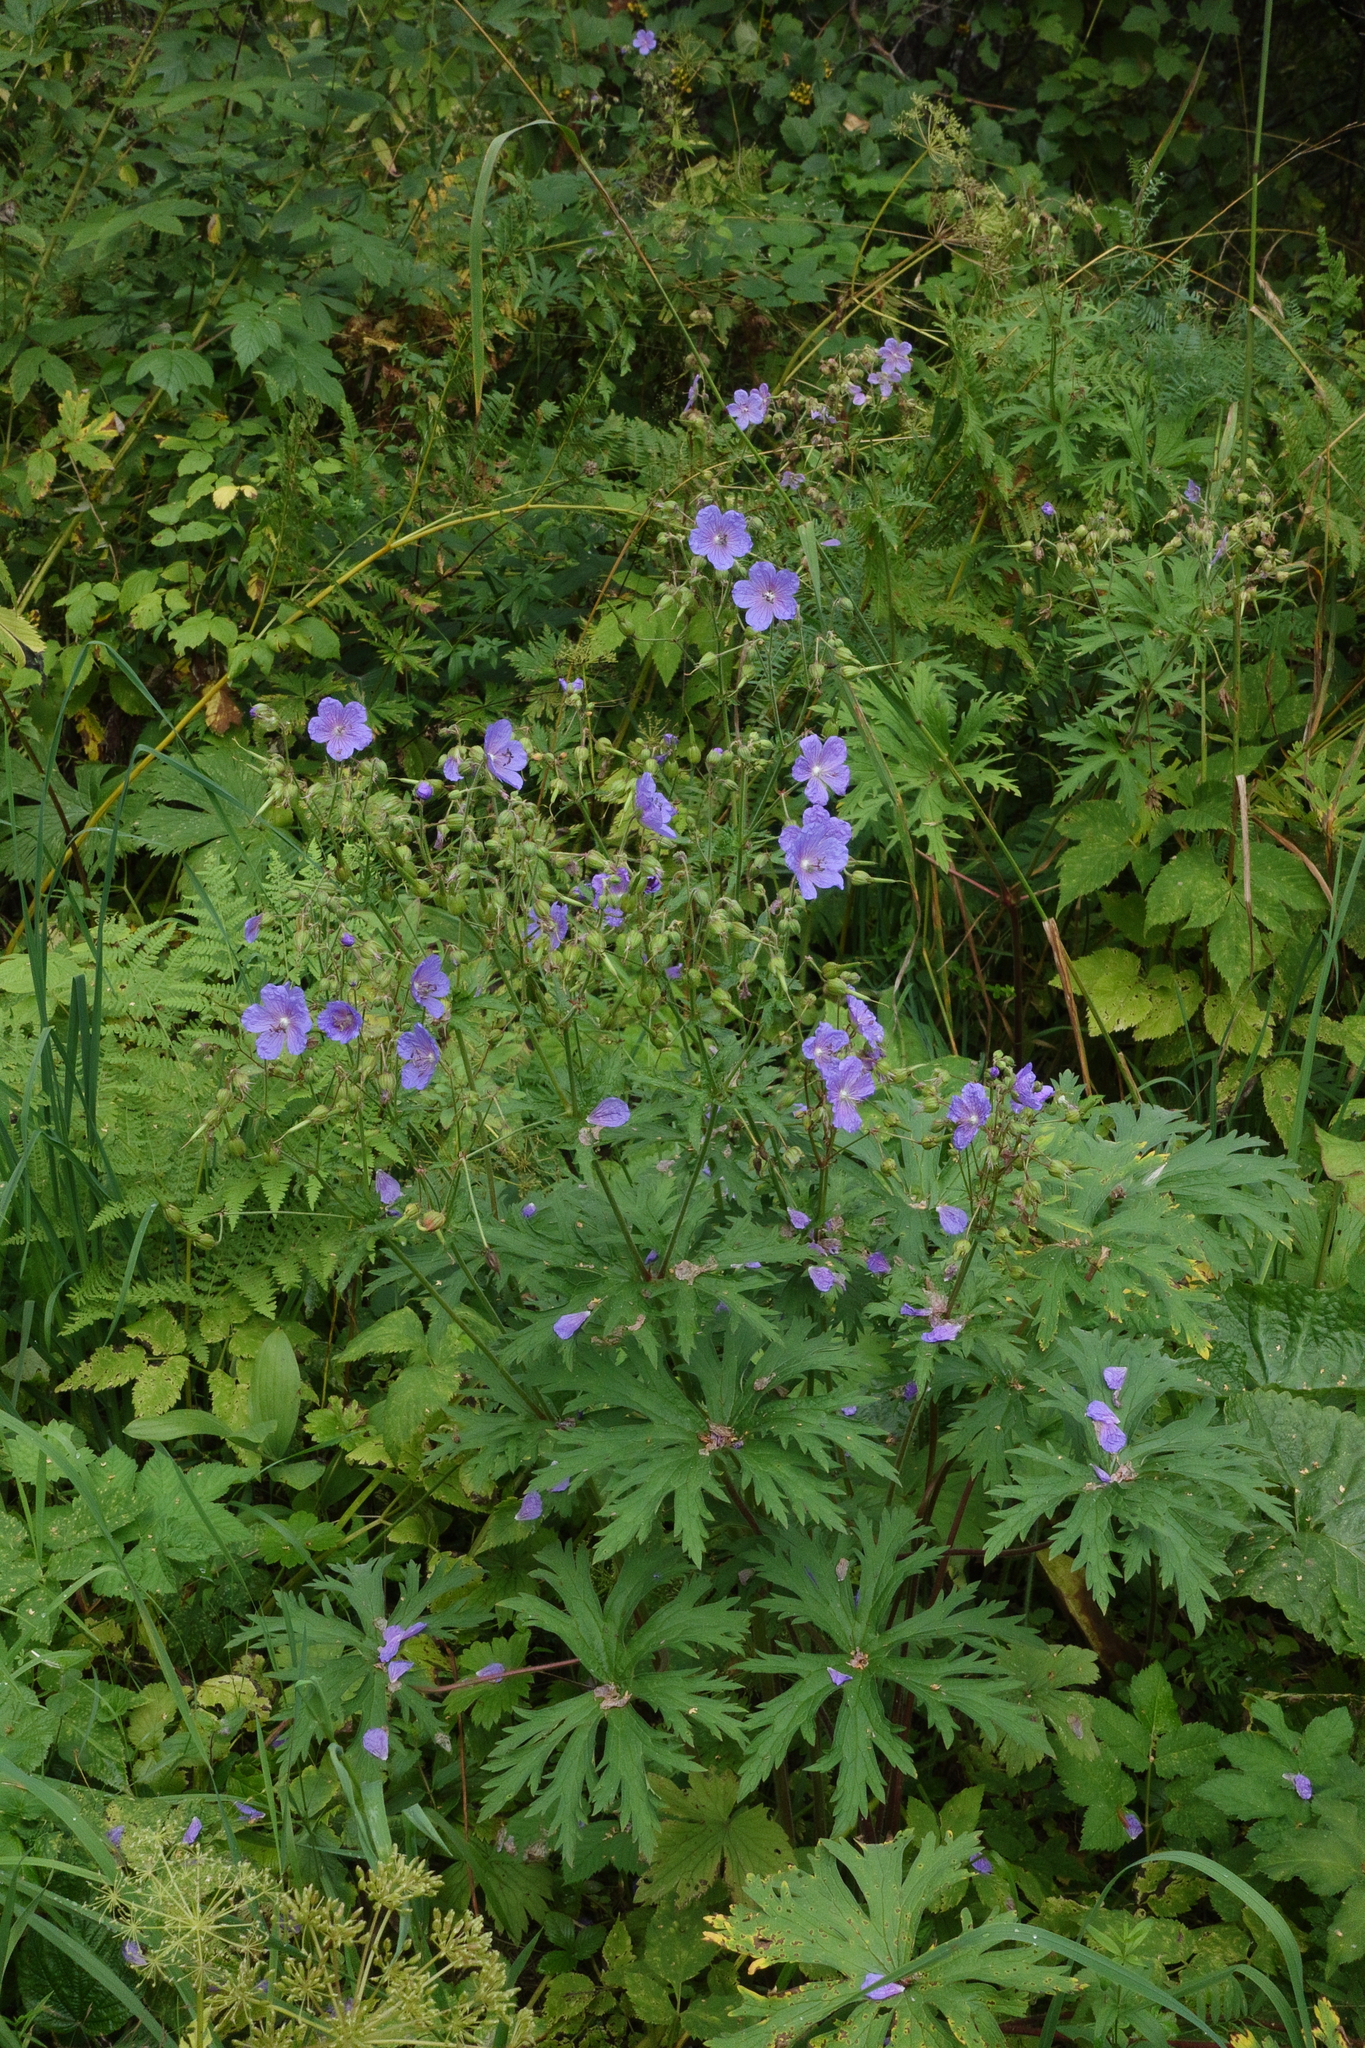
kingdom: Plantae
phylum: Tracheophyta
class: Magnoliopsida
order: Geraniales
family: Geraniaceae
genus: Geranium
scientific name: Geranium pratense
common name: Meadow crane's-bill
